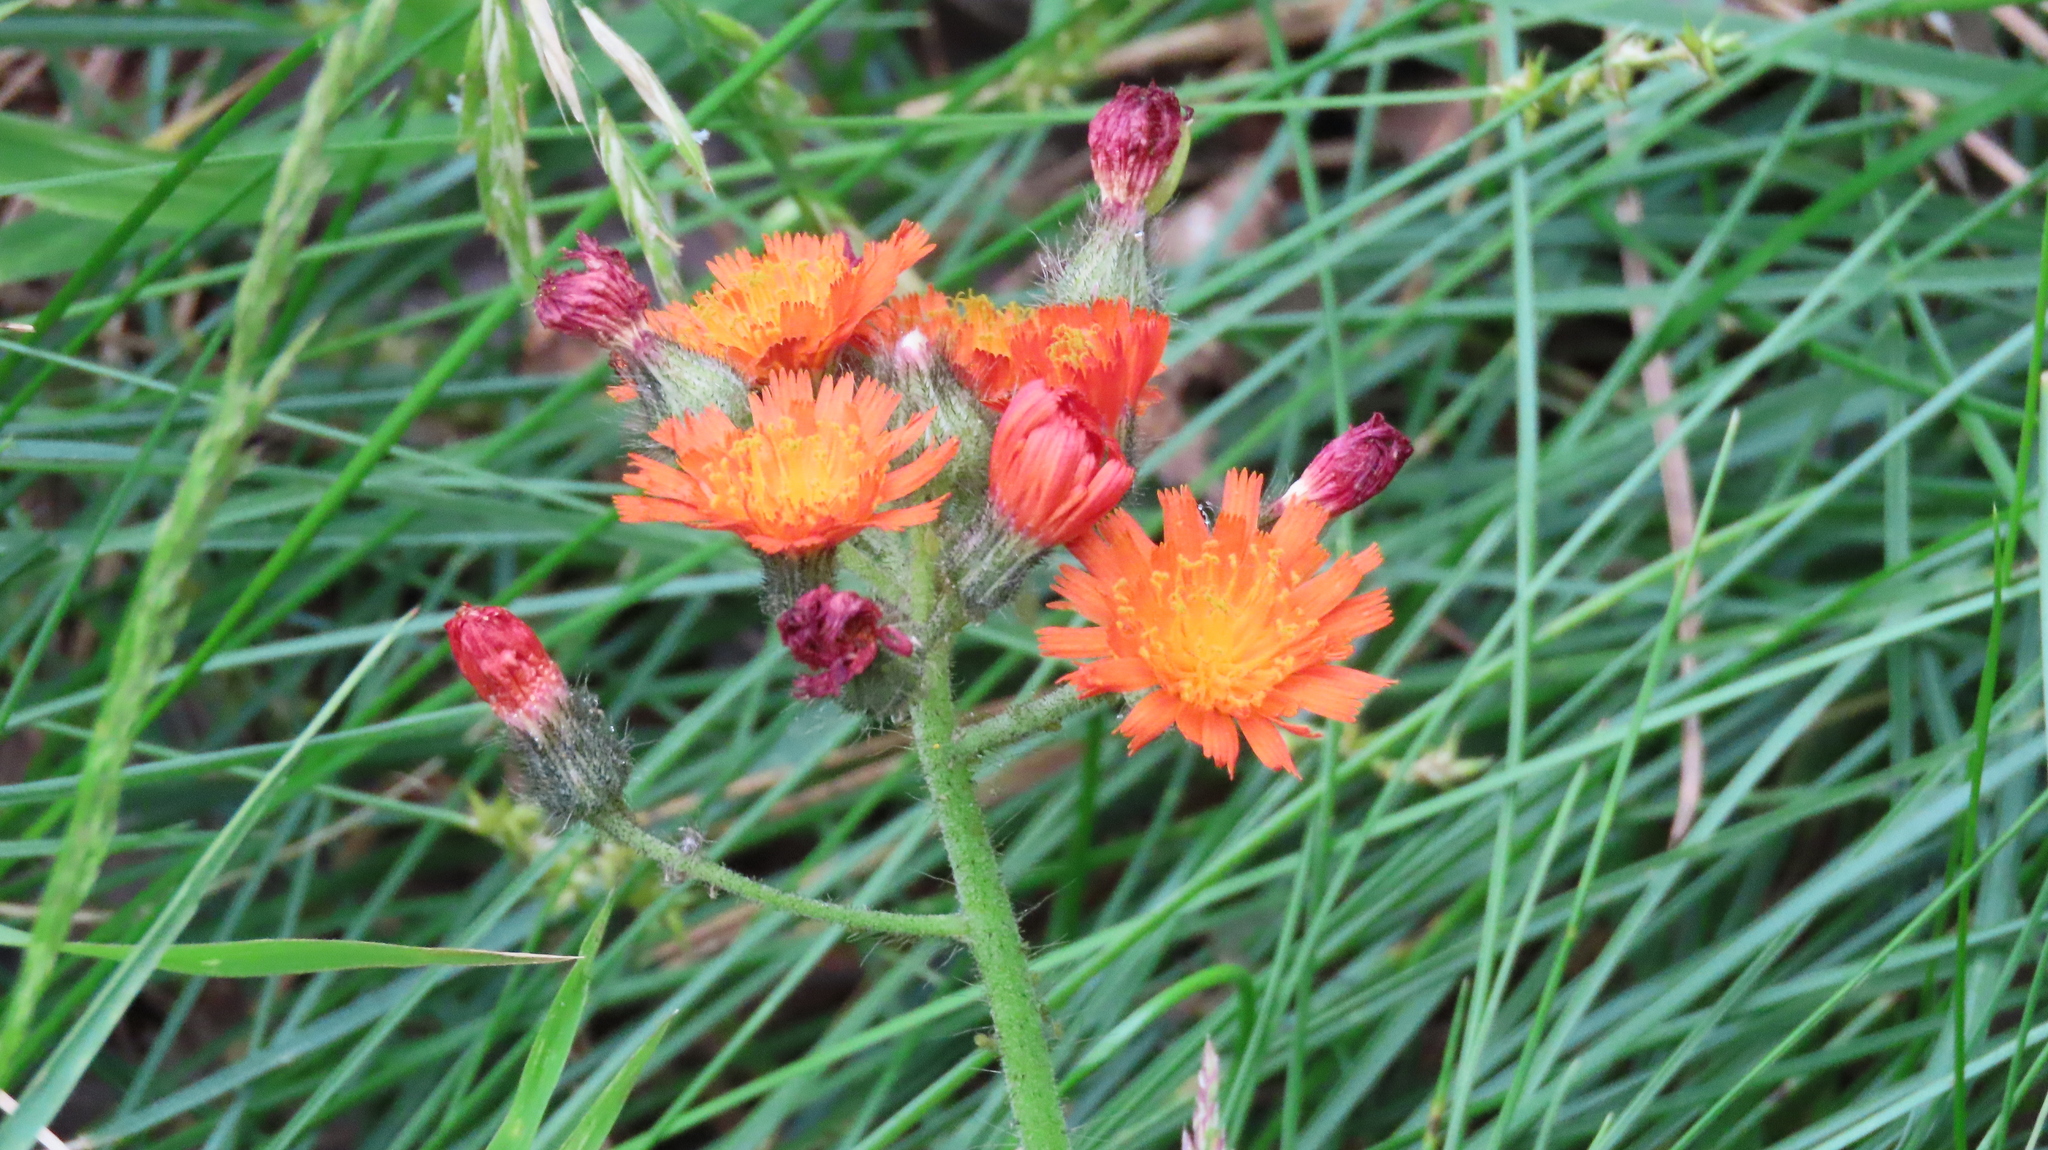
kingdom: Plantae
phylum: Tracheophyta
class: Magnoliopsida
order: Asterales
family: Asteraceae
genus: Pilosella
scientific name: Pilosella aurantiaca
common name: Fox-and-cubs
